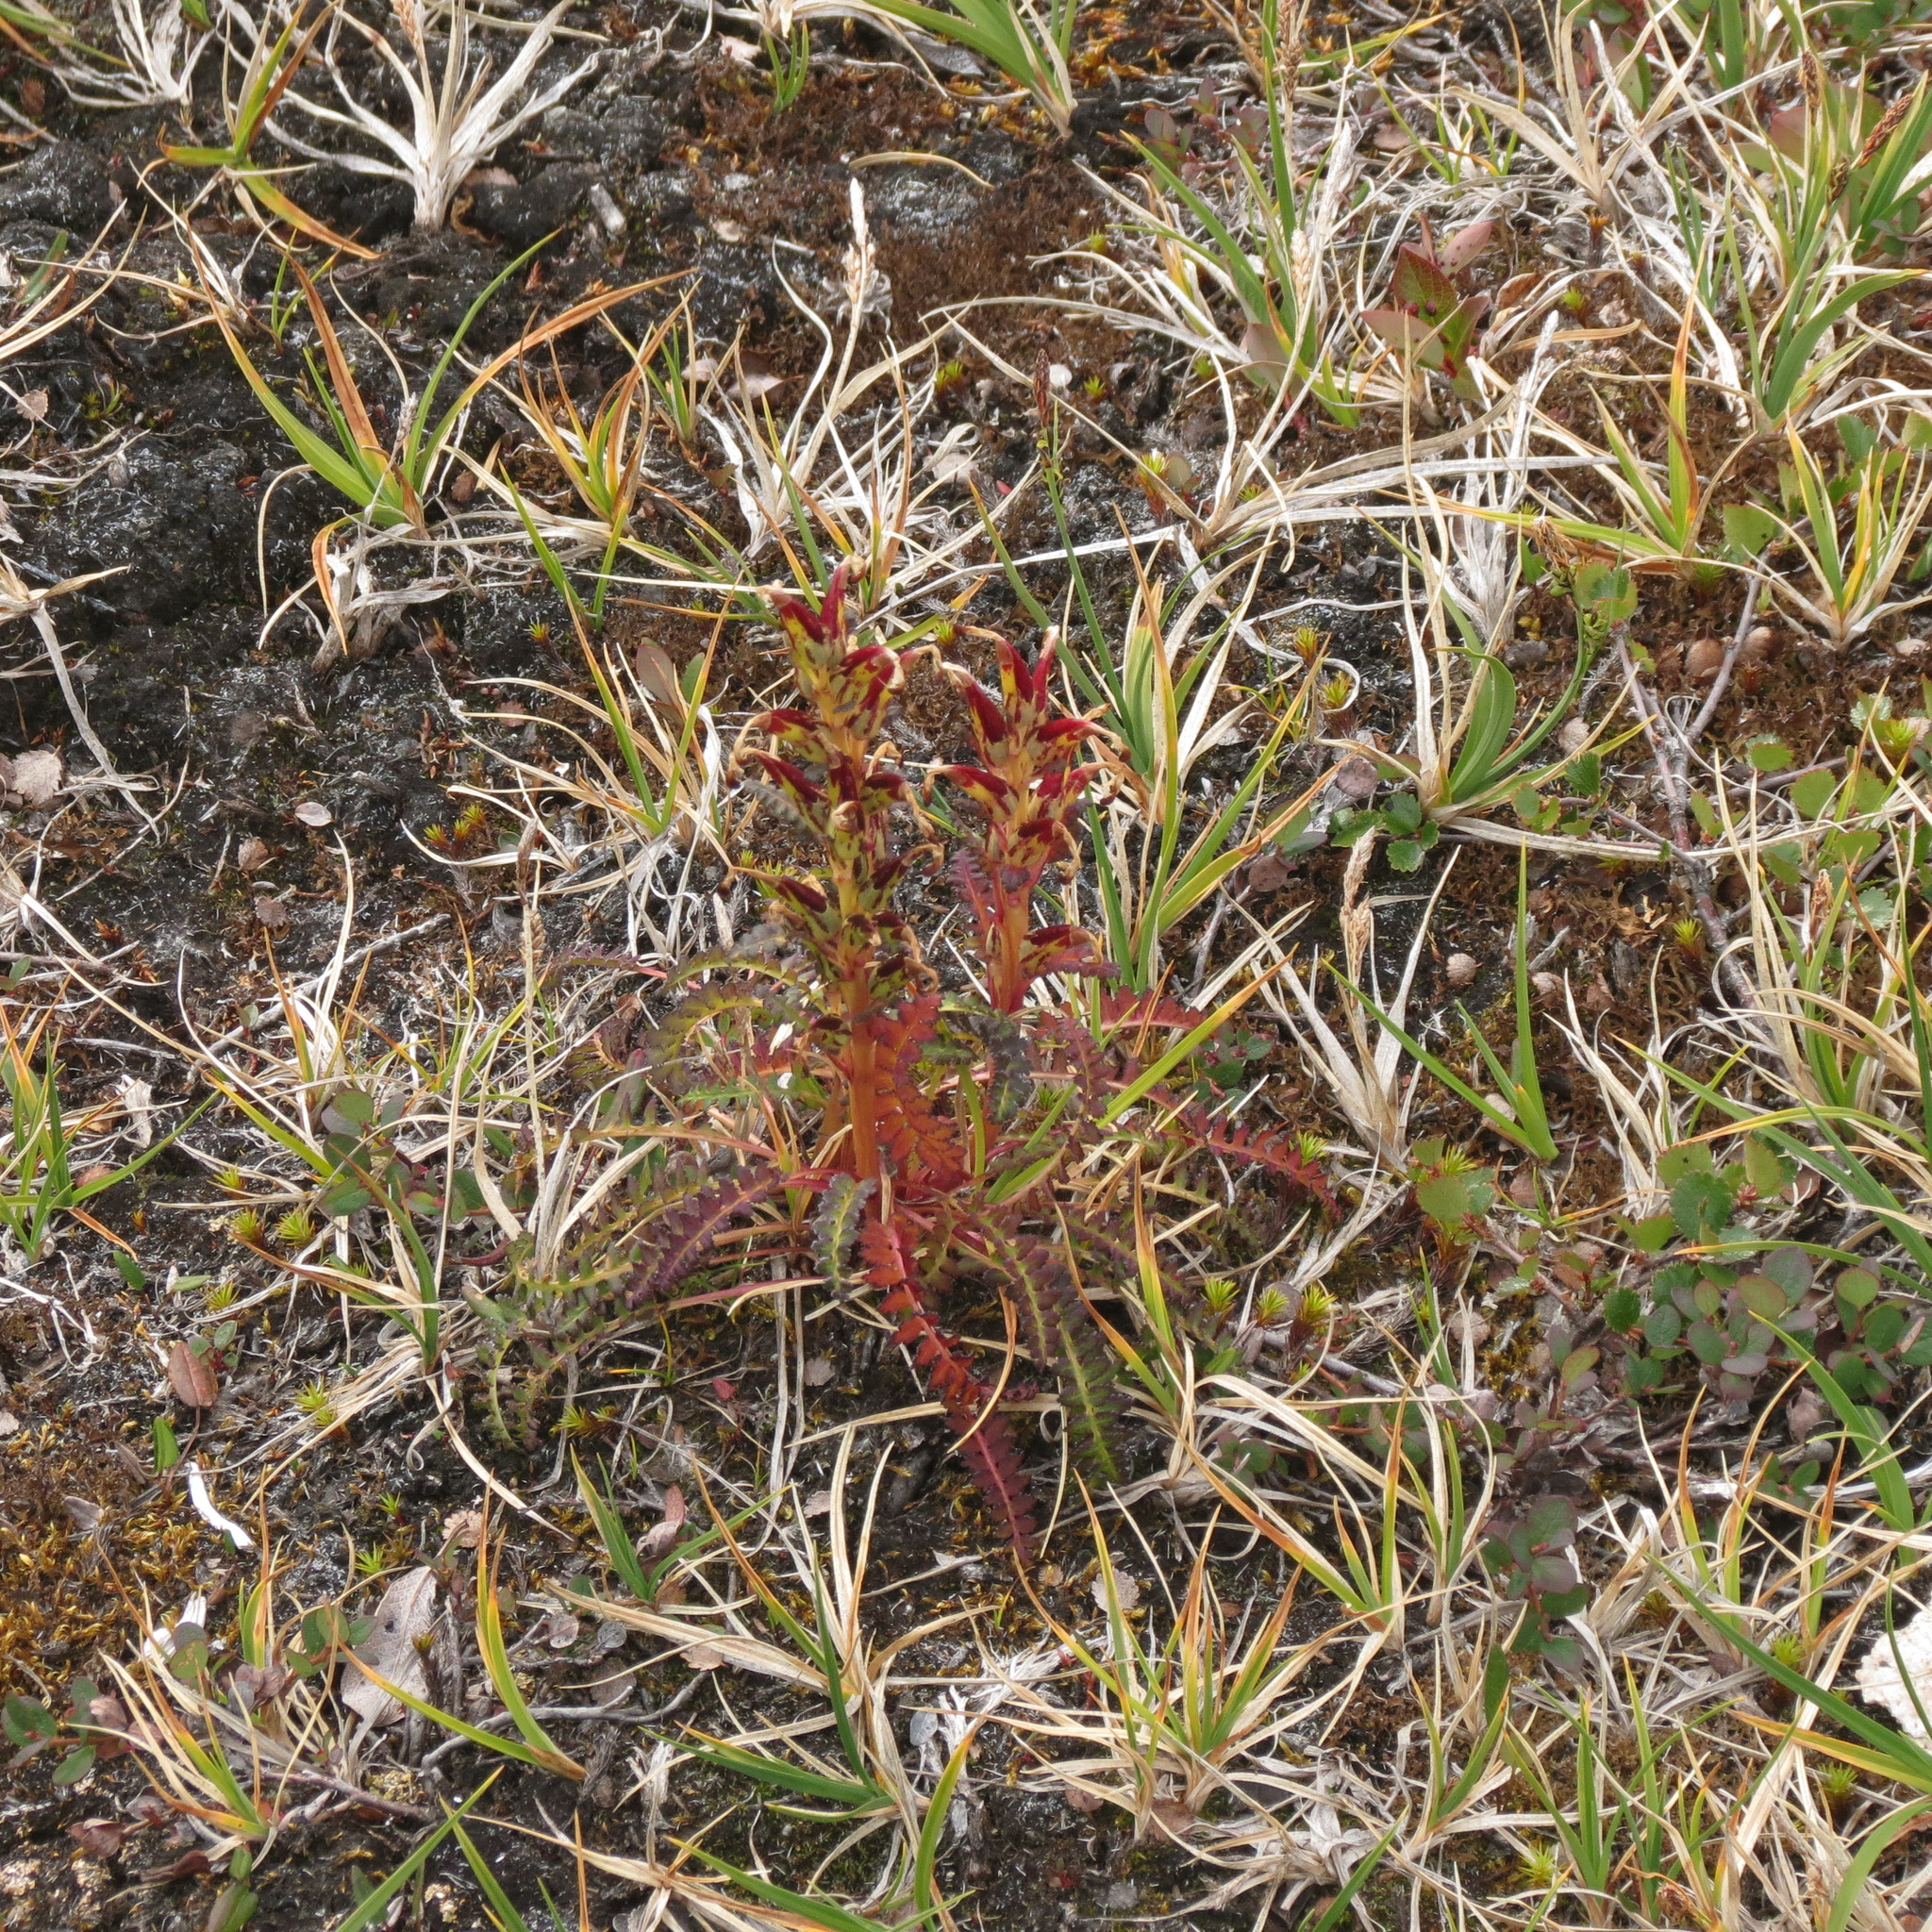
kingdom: Plantae
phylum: Tracheophyta
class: Magnoliopsida
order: Lamiales
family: Orobanchaceae
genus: Pedicularis
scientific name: Pedicularis flammea
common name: Flame-coloured lousewort
